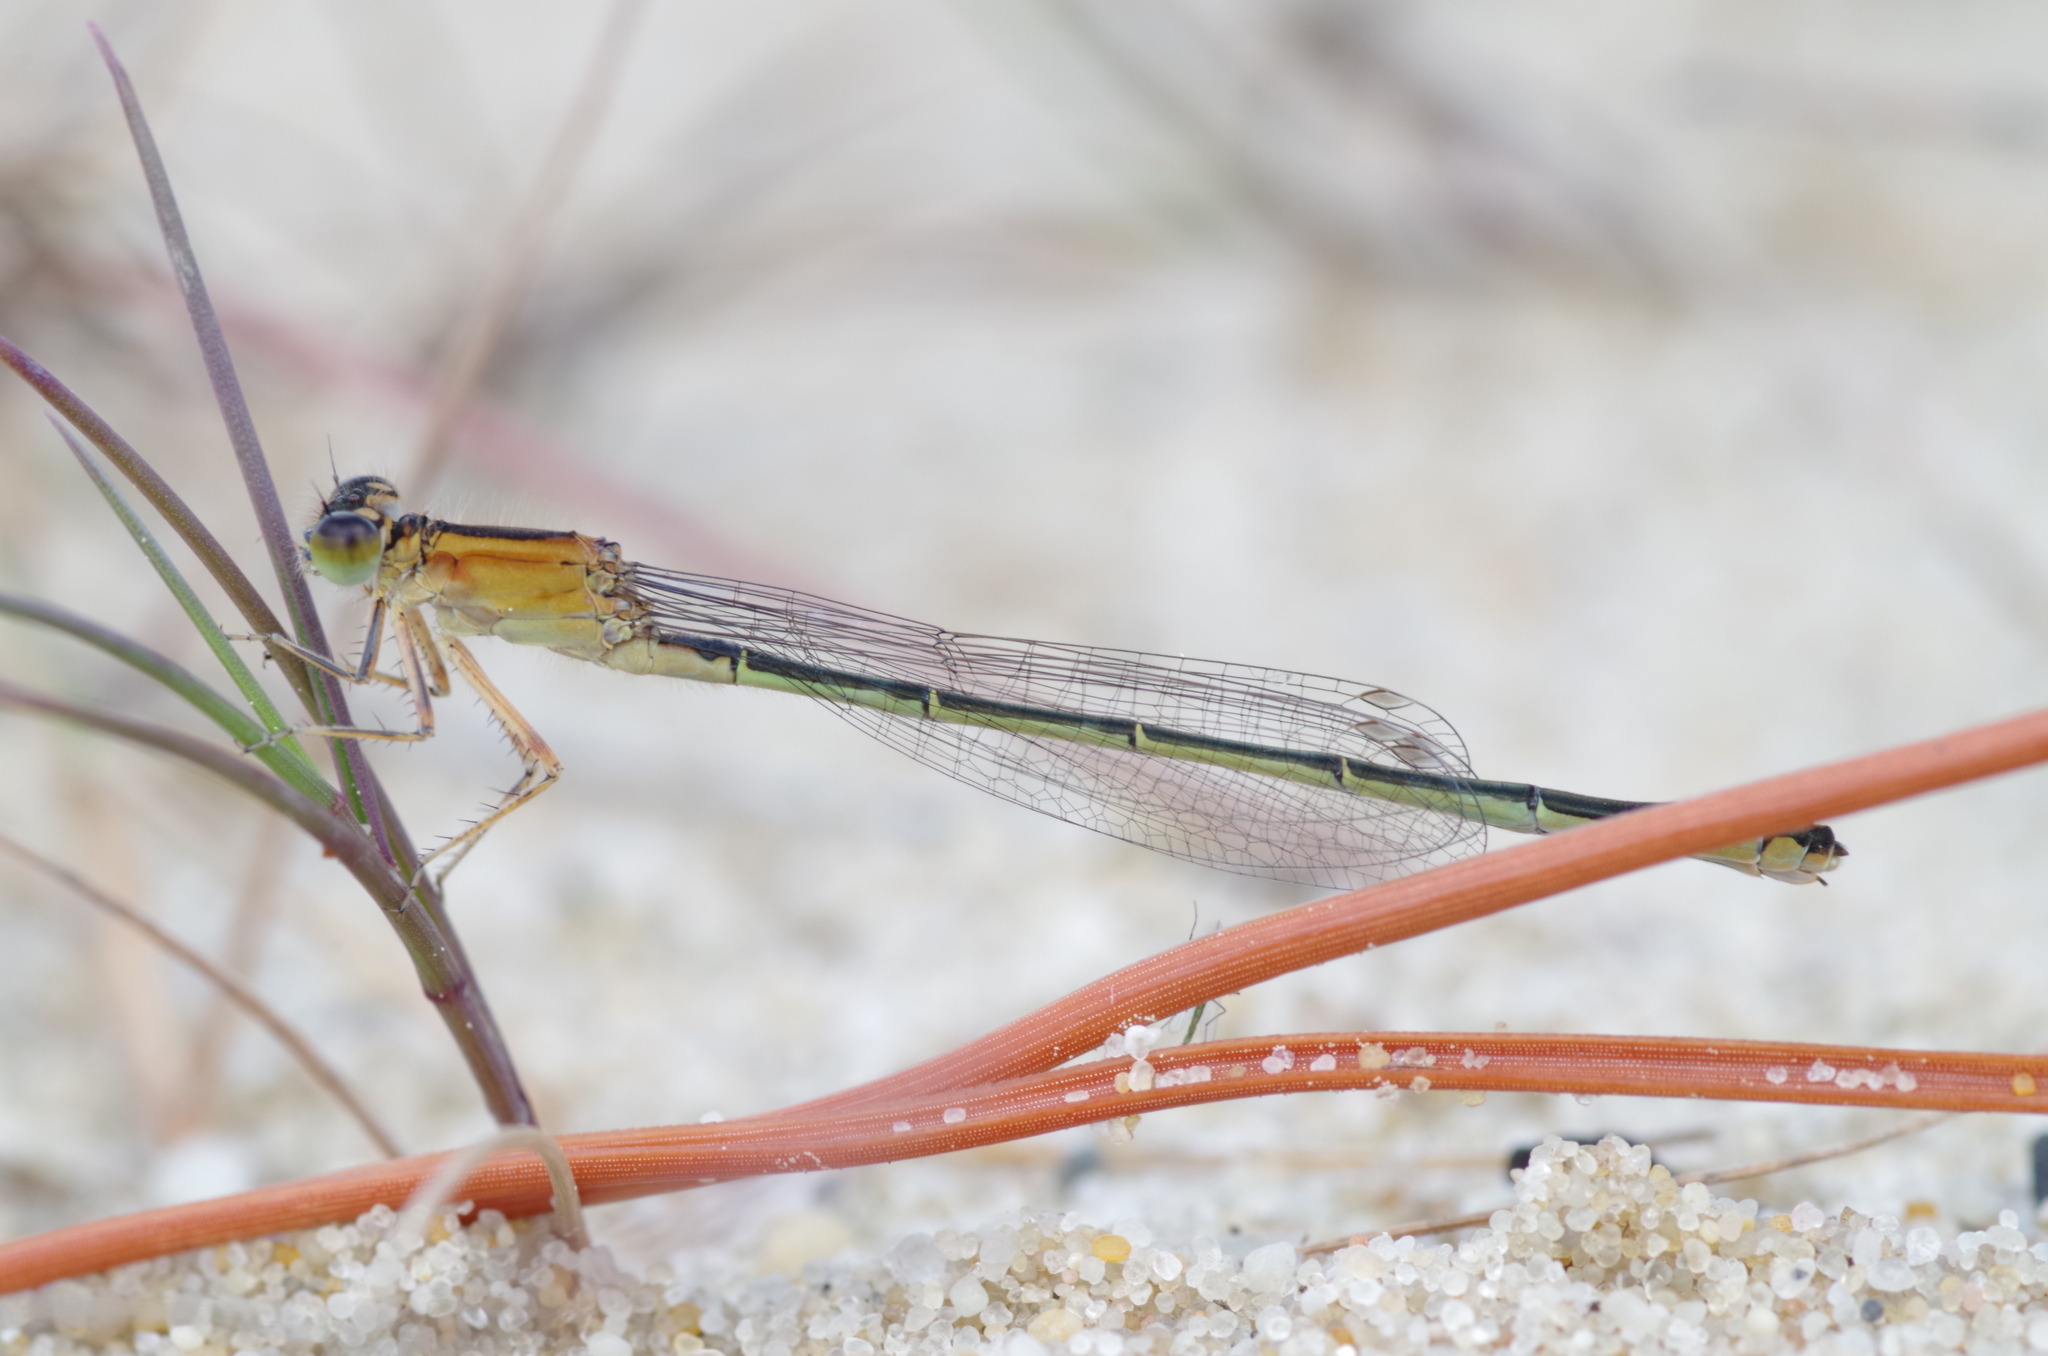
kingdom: Animalia
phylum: Arthropoda
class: Insecta
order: Odonata
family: Coenagrionidae
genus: Ischnura
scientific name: Ischnura elegans
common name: Blue-tailed damselfly
